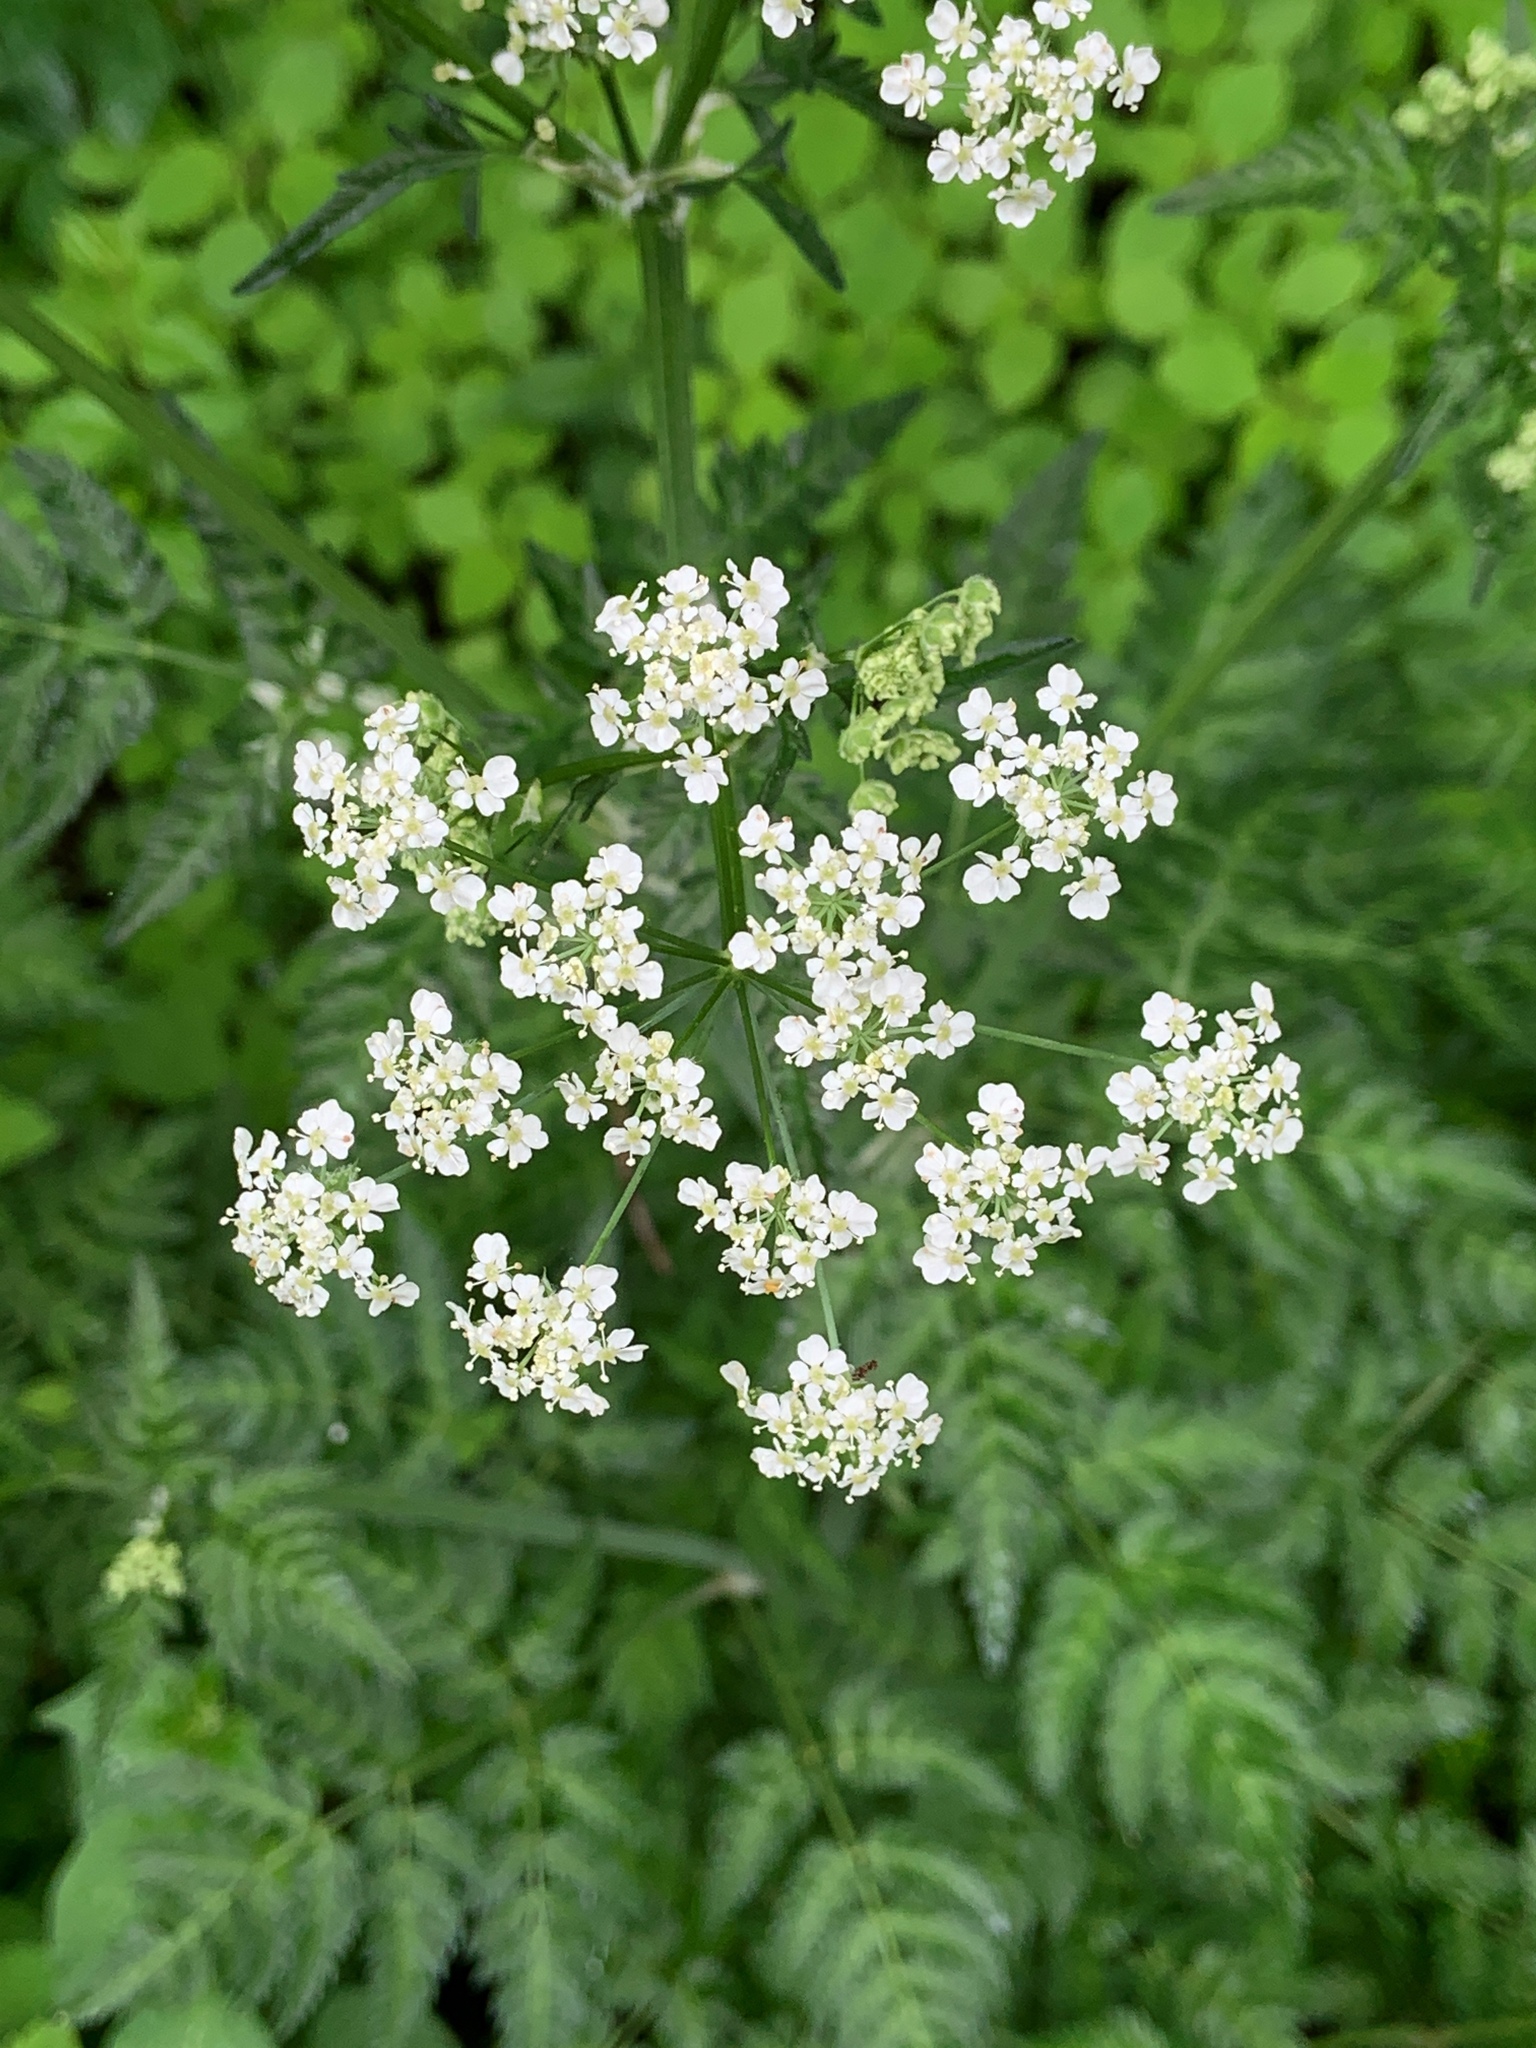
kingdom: Plantae
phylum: Tracheophyta
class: Magnoliopsida
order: Apiales
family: Apiaceae
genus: Anthriscus
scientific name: Anthriscus sylvestris
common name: Cow parsley
